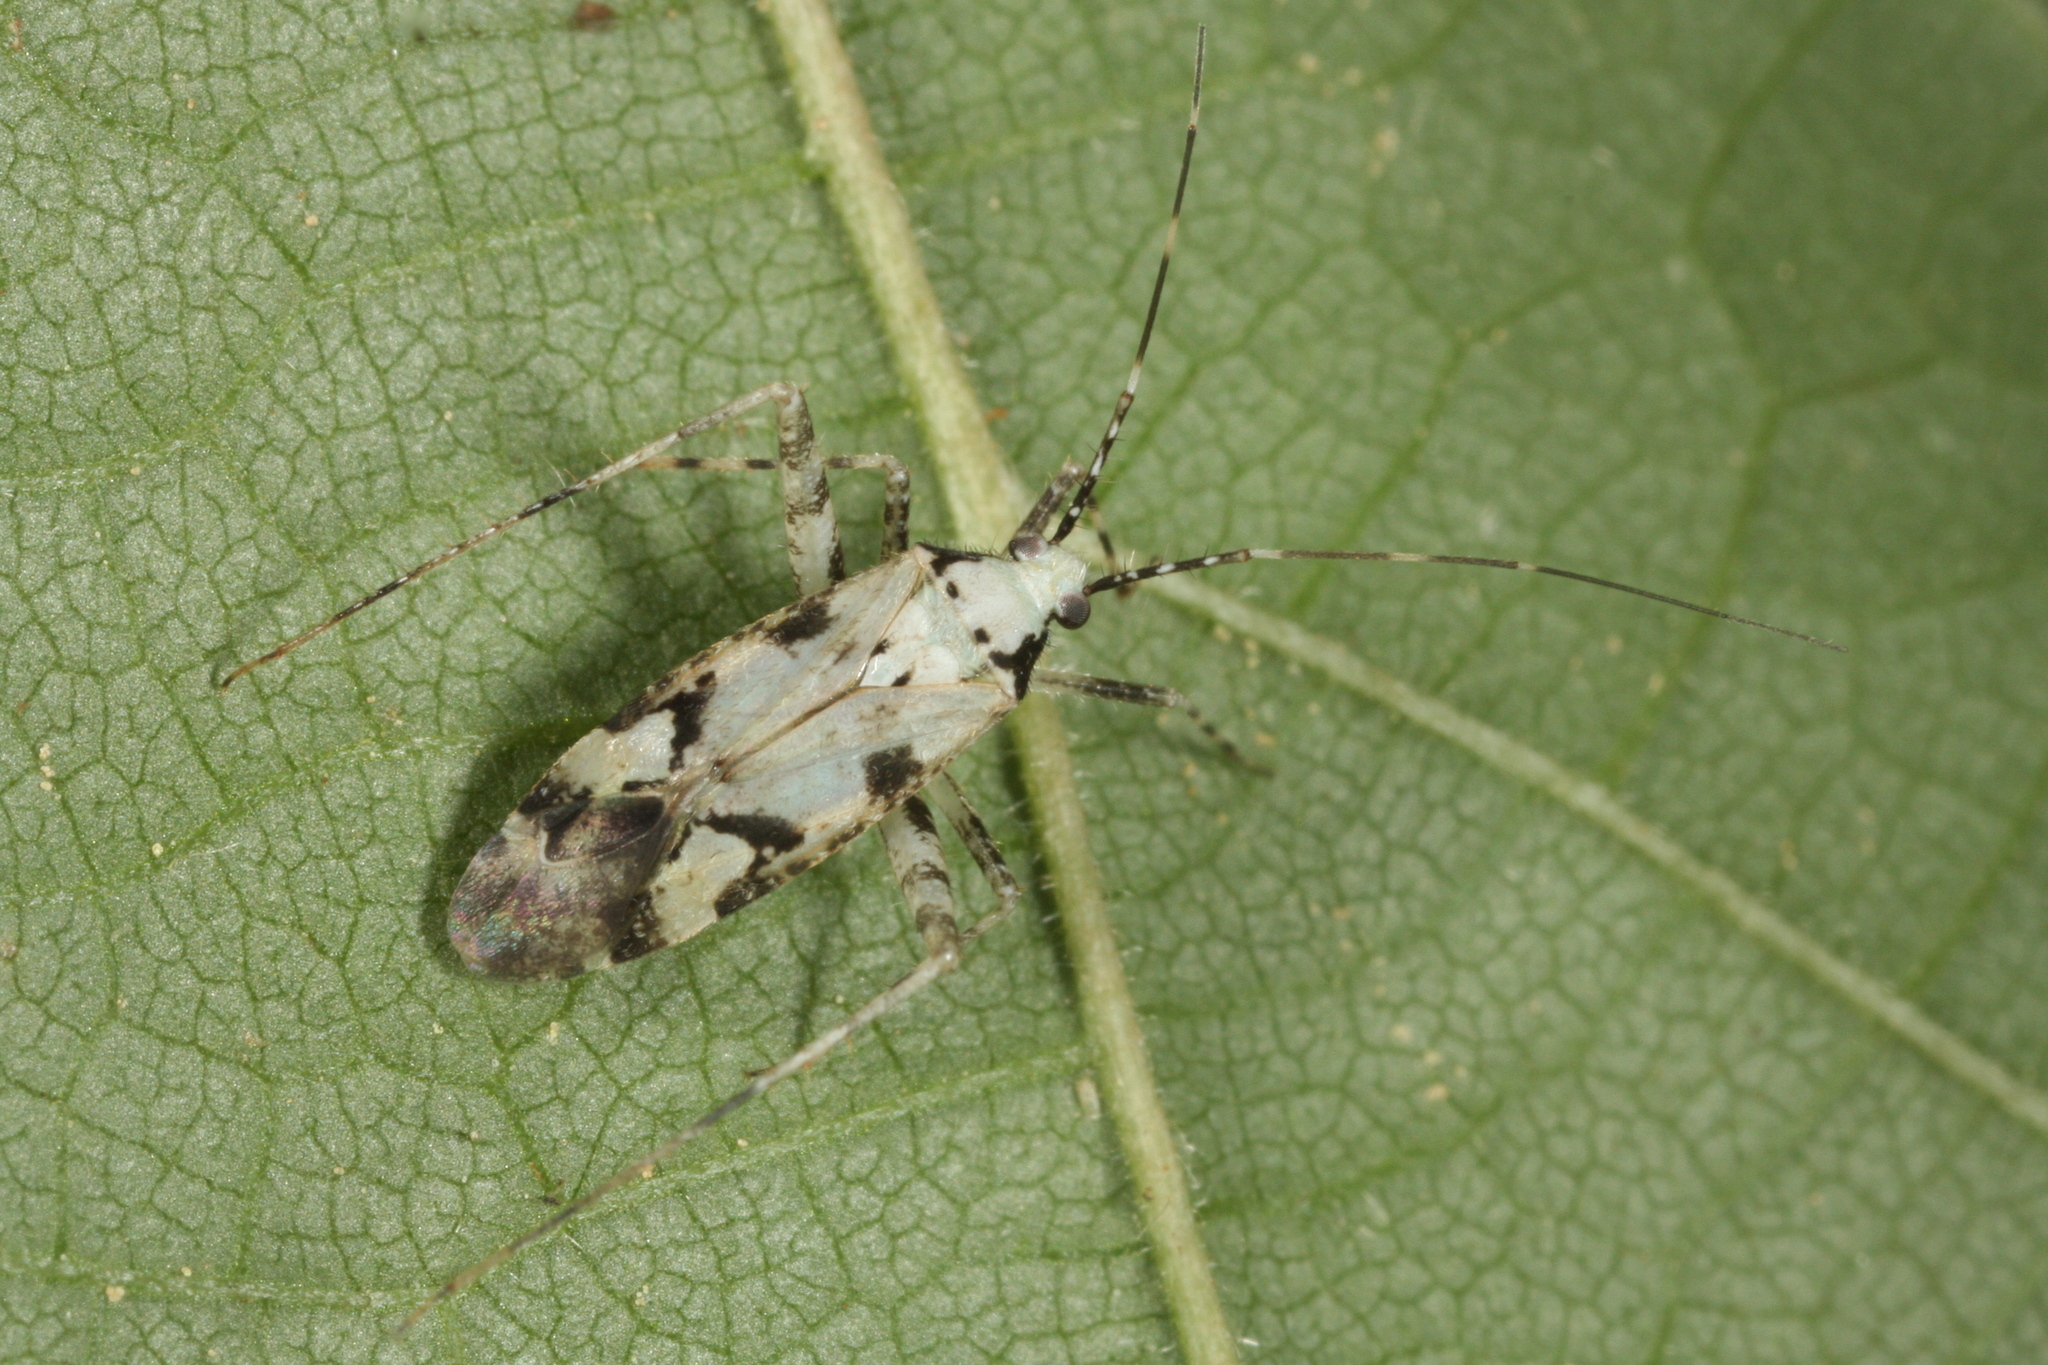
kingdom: Animalia
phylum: Arthropoda
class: Insecta
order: Hemiptera
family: Miridae
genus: Phytocoris
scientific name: Phytocoris tiliae
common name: Plant bug
